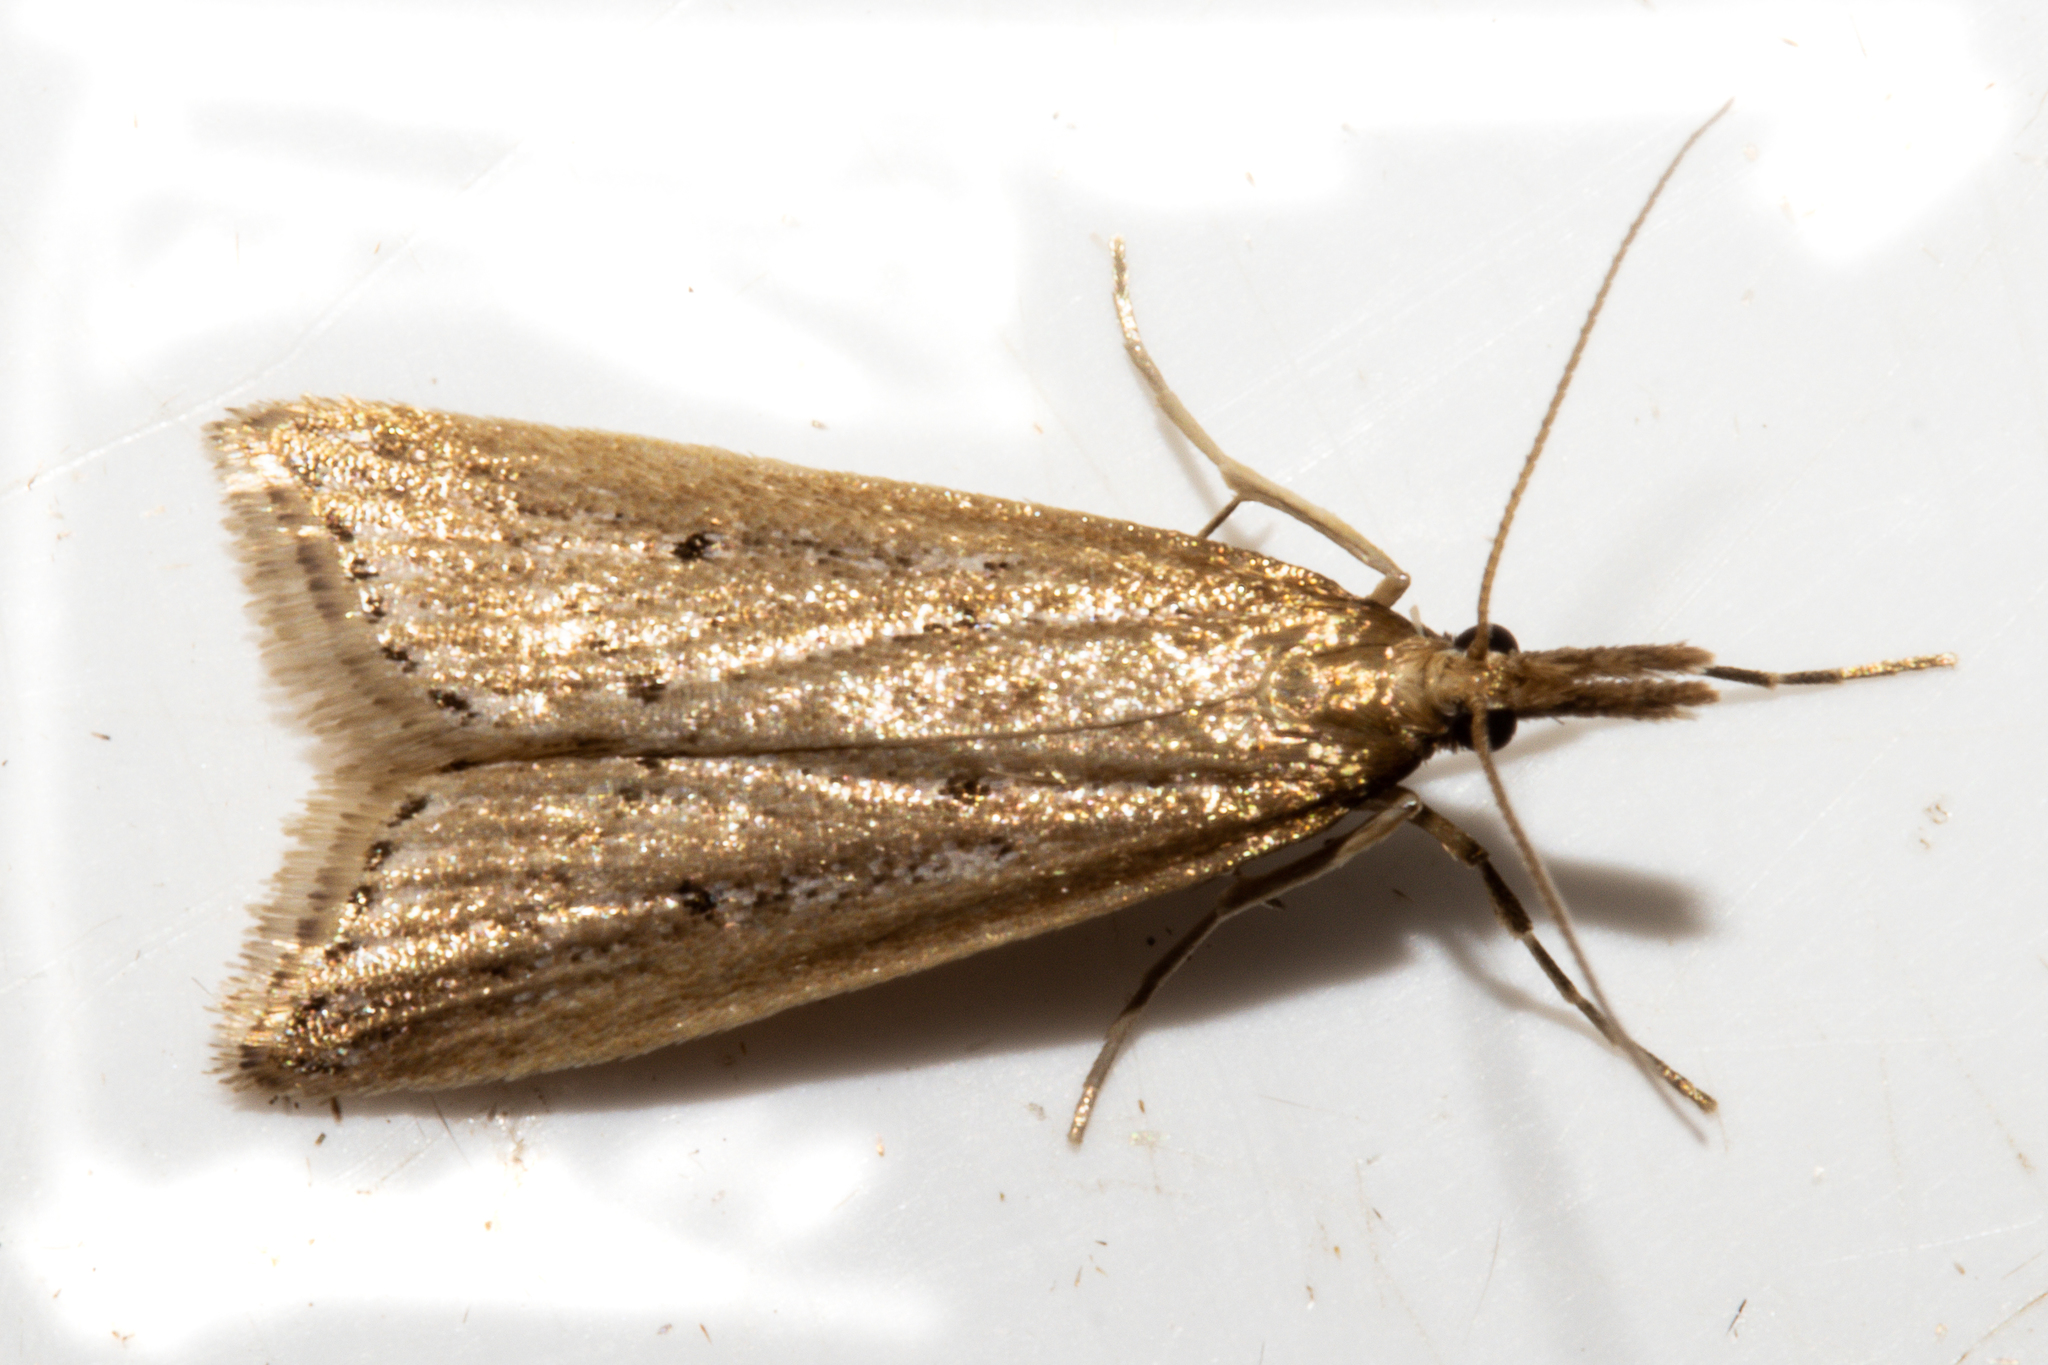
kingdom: Animalia
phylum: Arthropoda
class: Insecta
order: Lepidoptera
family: Crambidae
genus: Antiscopa
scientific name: Antiscopa elaphra
